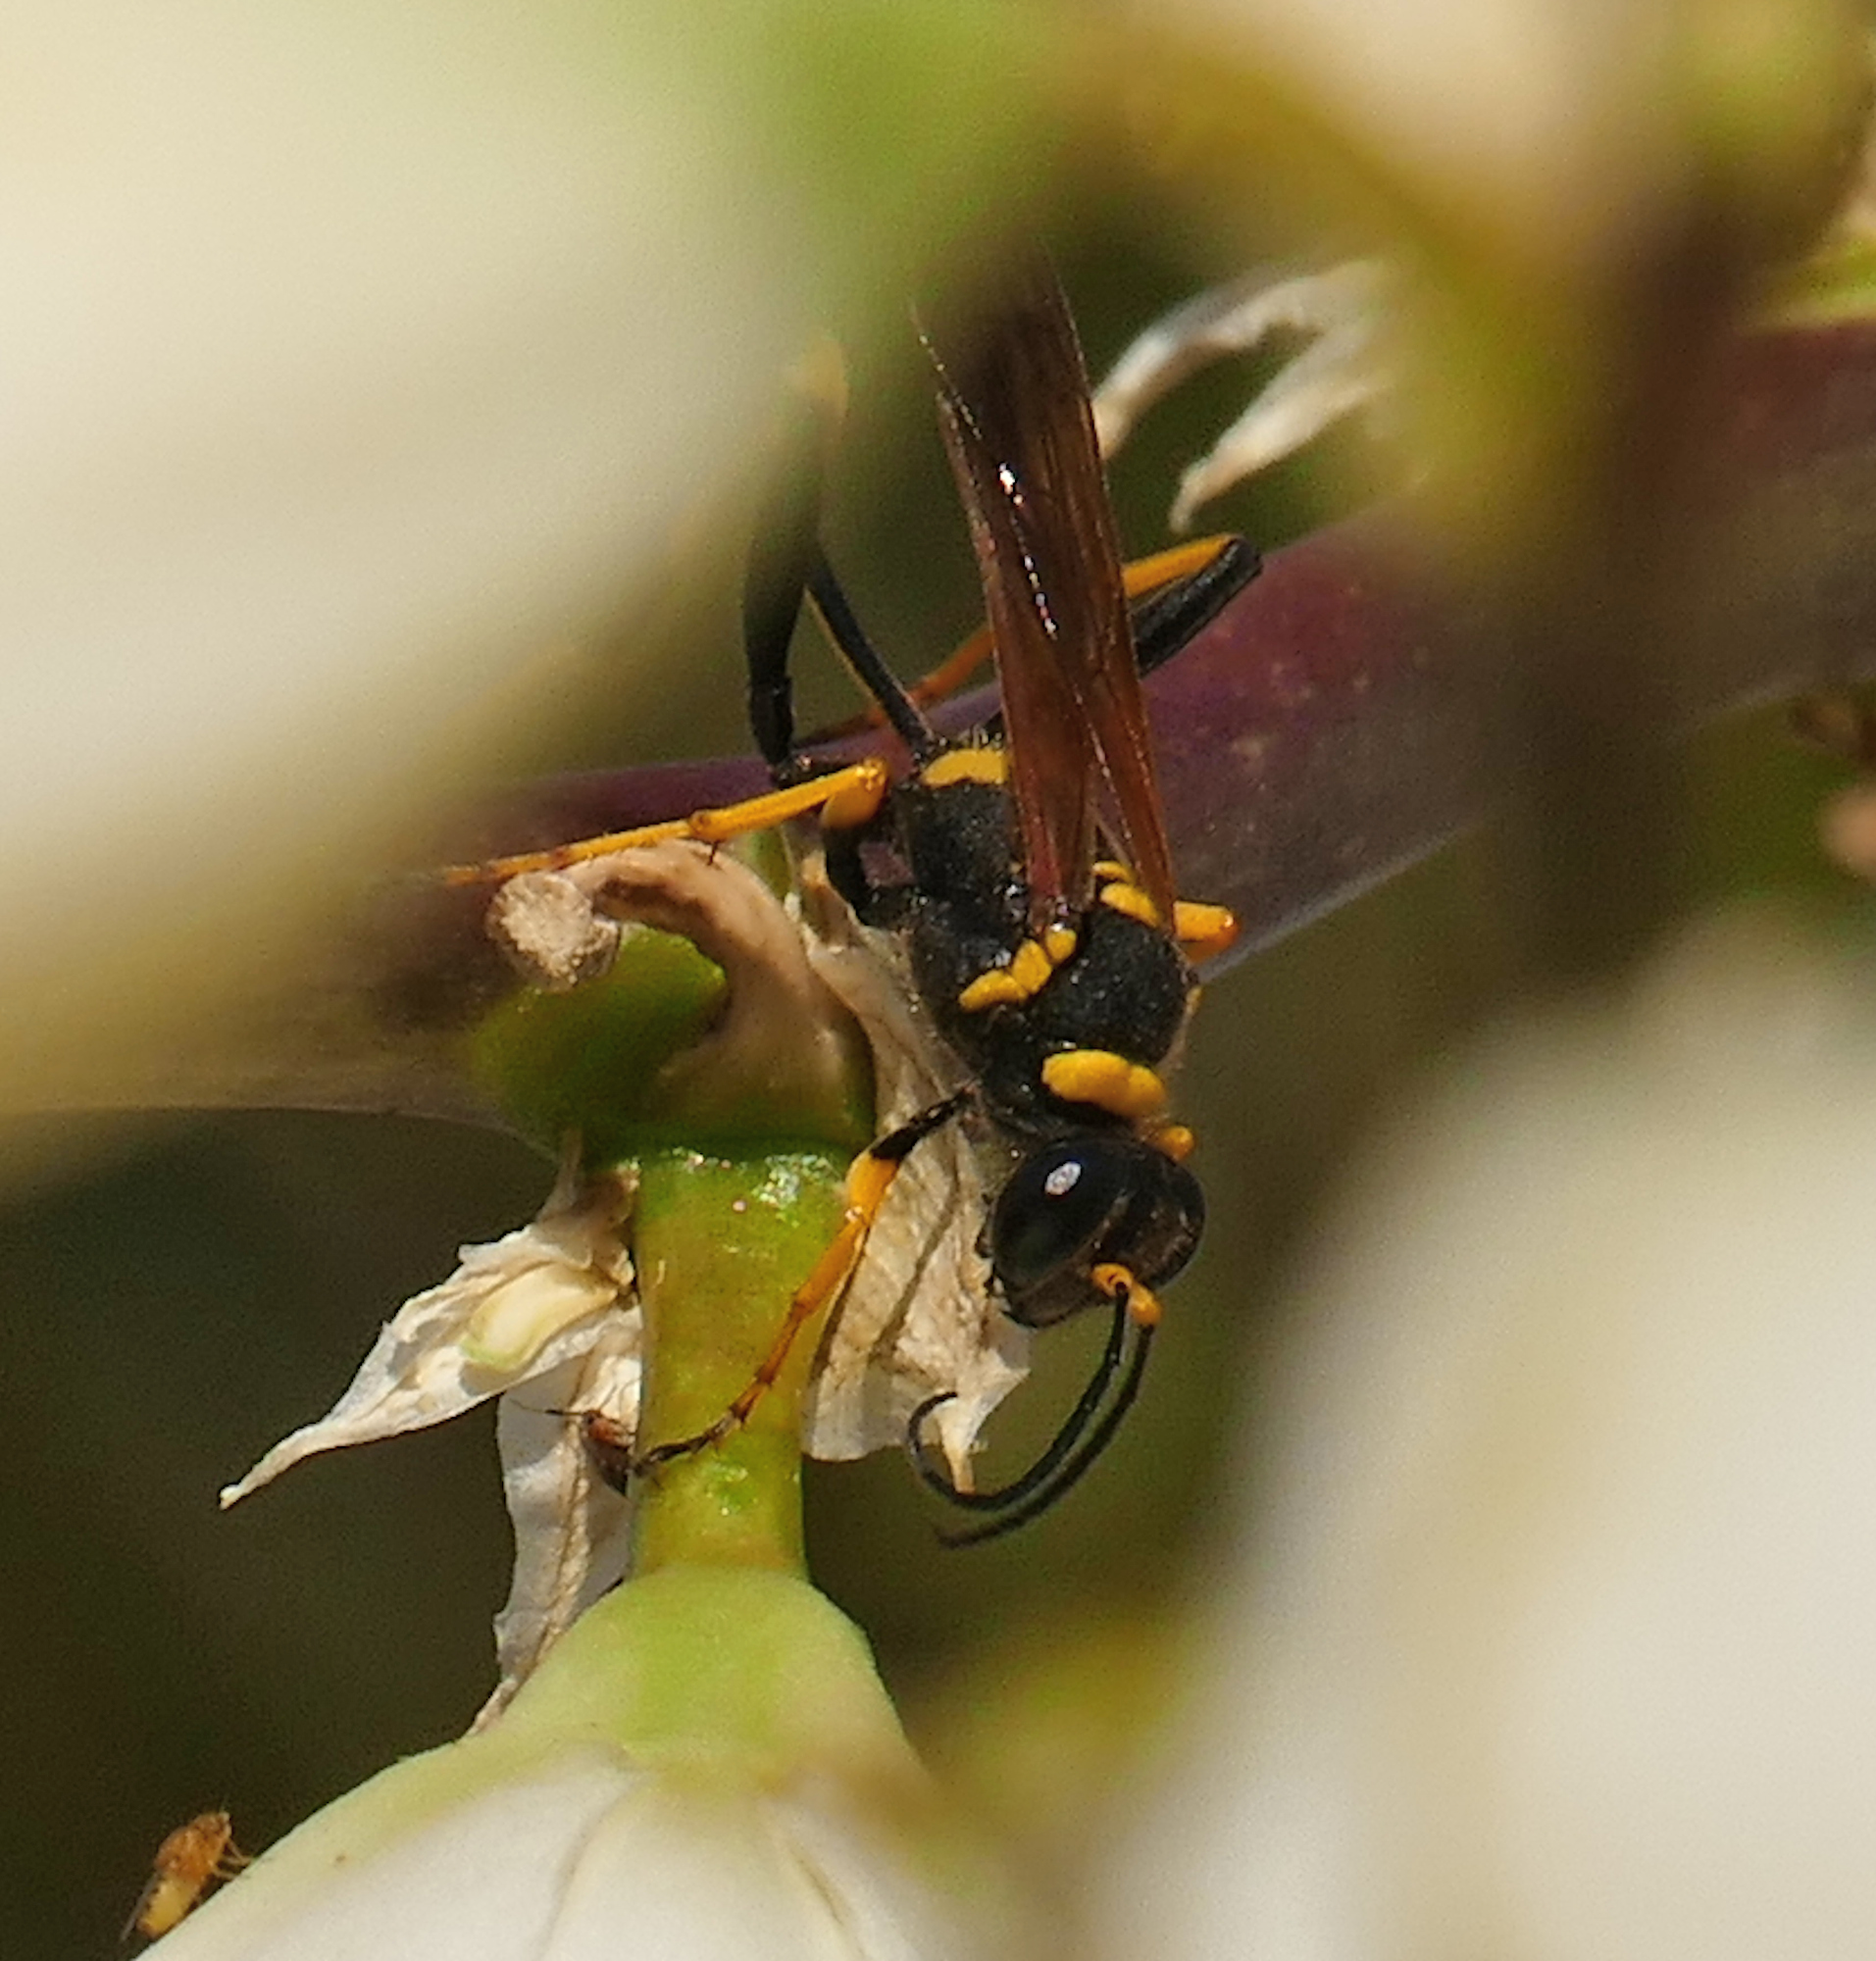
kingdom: Animalia
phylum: Arthropoda
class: Insecta
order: Hymenoptera
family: Sphecidae
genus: Sceliphron
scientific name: Sceliphron caementarium
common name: Mud dauber
